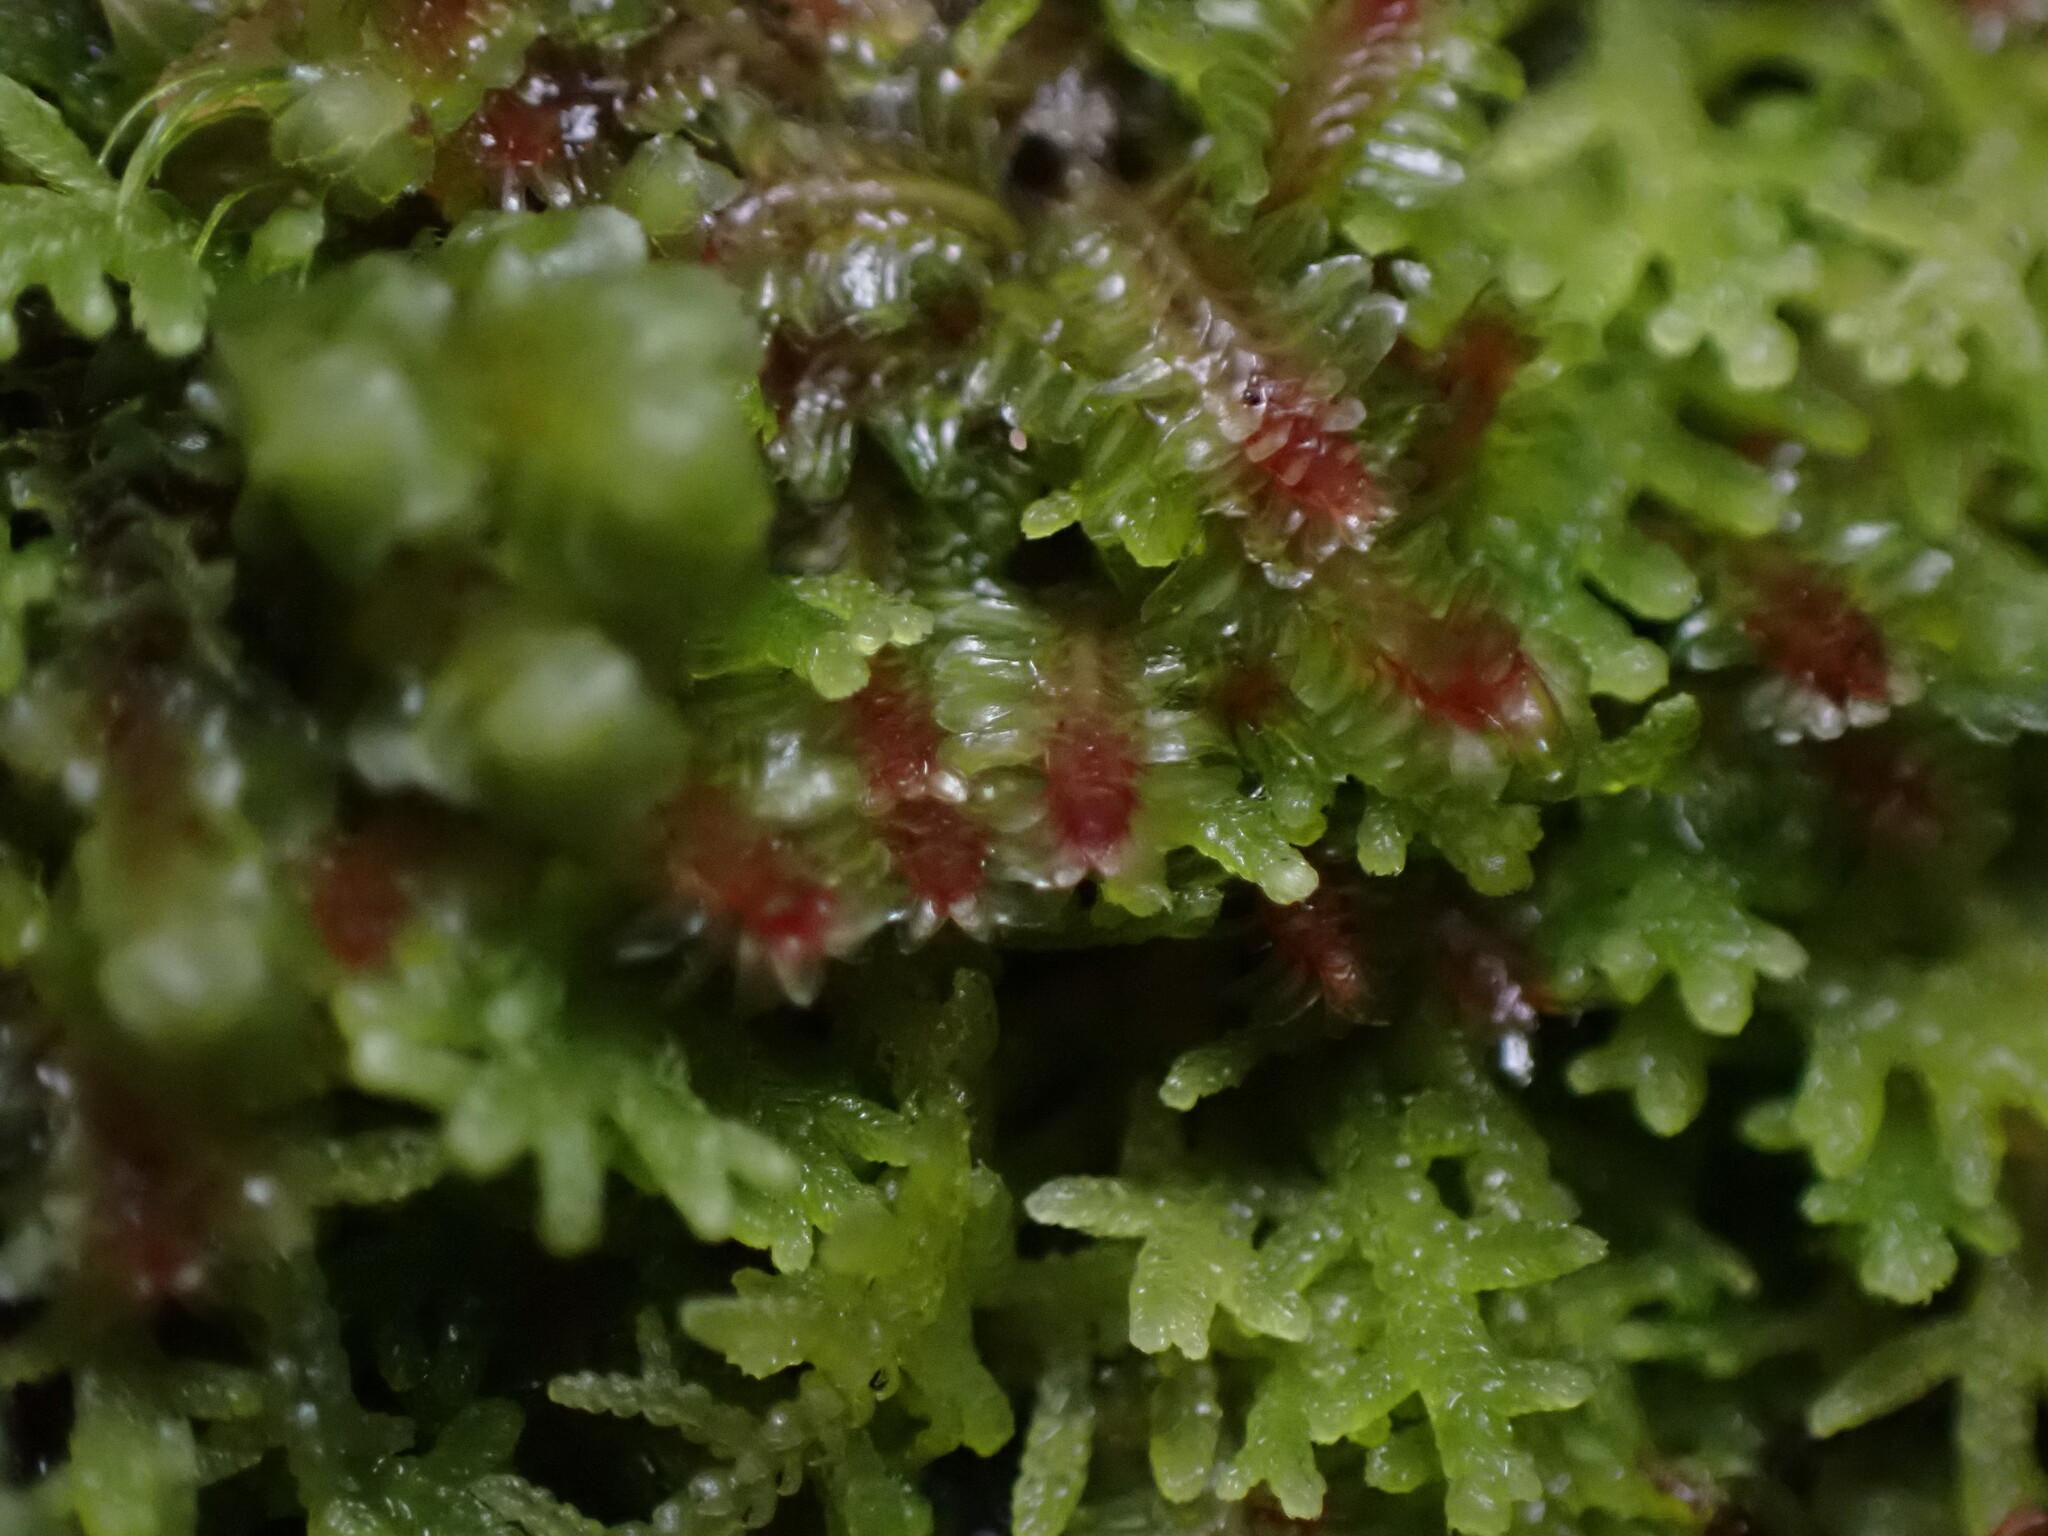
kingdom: Plantae
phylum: Marchantiophyta
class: Jungermanniopsida
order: Jungermanniales
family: Scapaniaceae
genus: Diplophyllum
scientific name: Diplophyllum albicans
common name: White earwort
